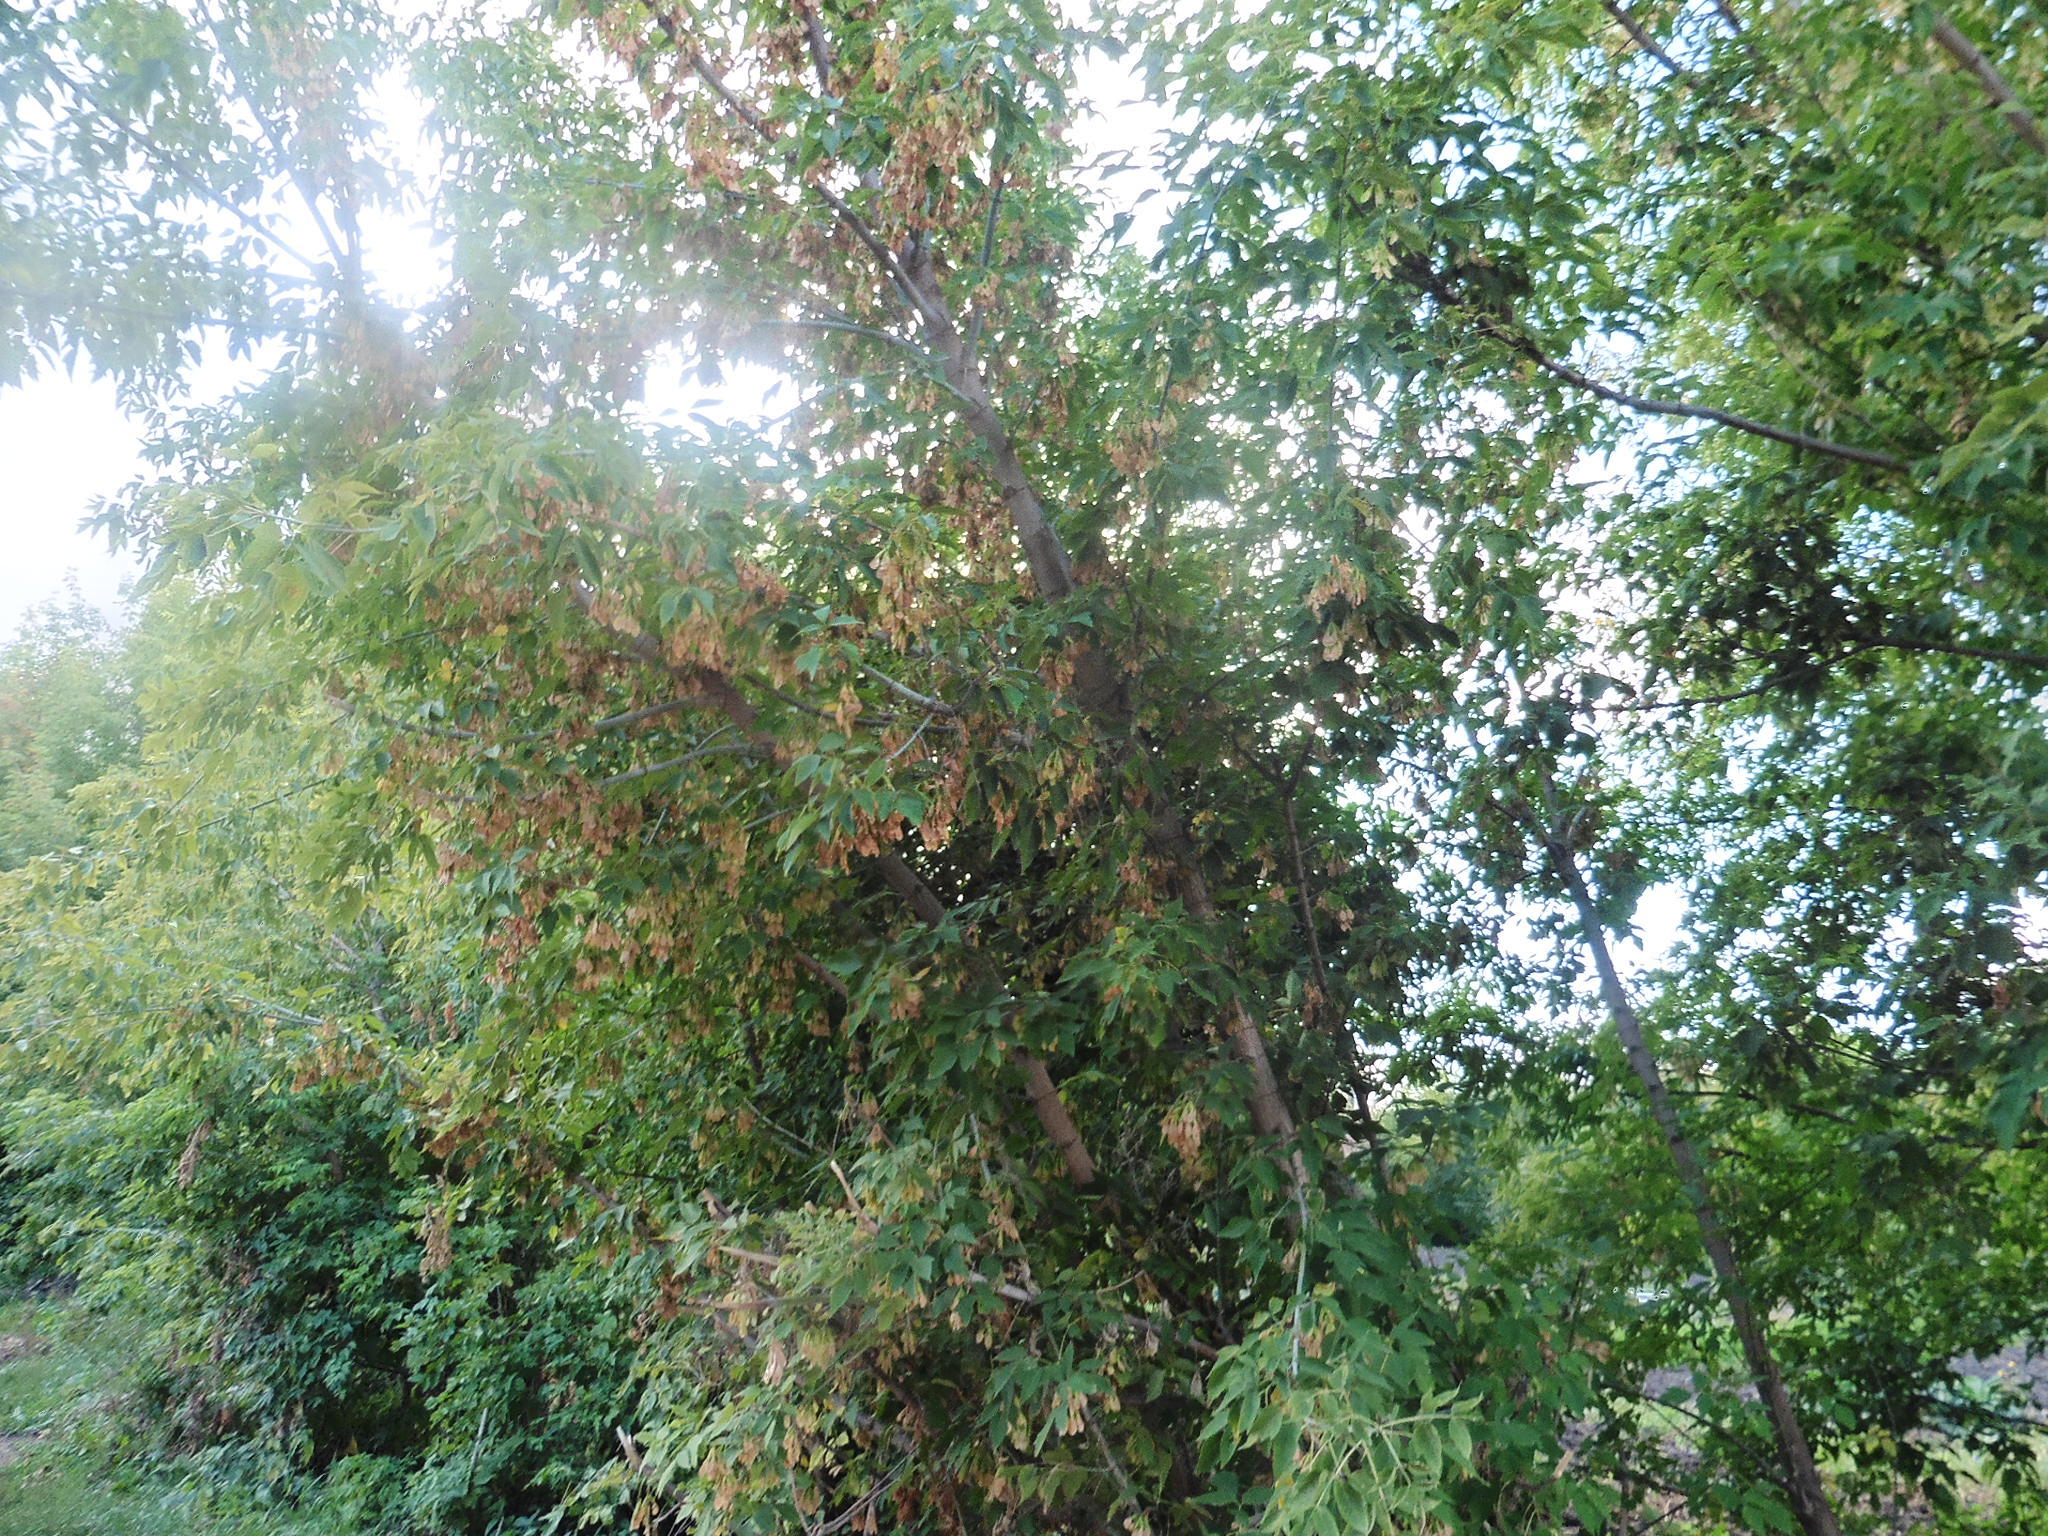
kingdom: Plantae
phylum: Tracheophyta
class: Magnoliopsida
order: Sapindales
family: Sapindaceae
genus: Acer
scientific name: Acer negundo
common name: Ashleaf maple
